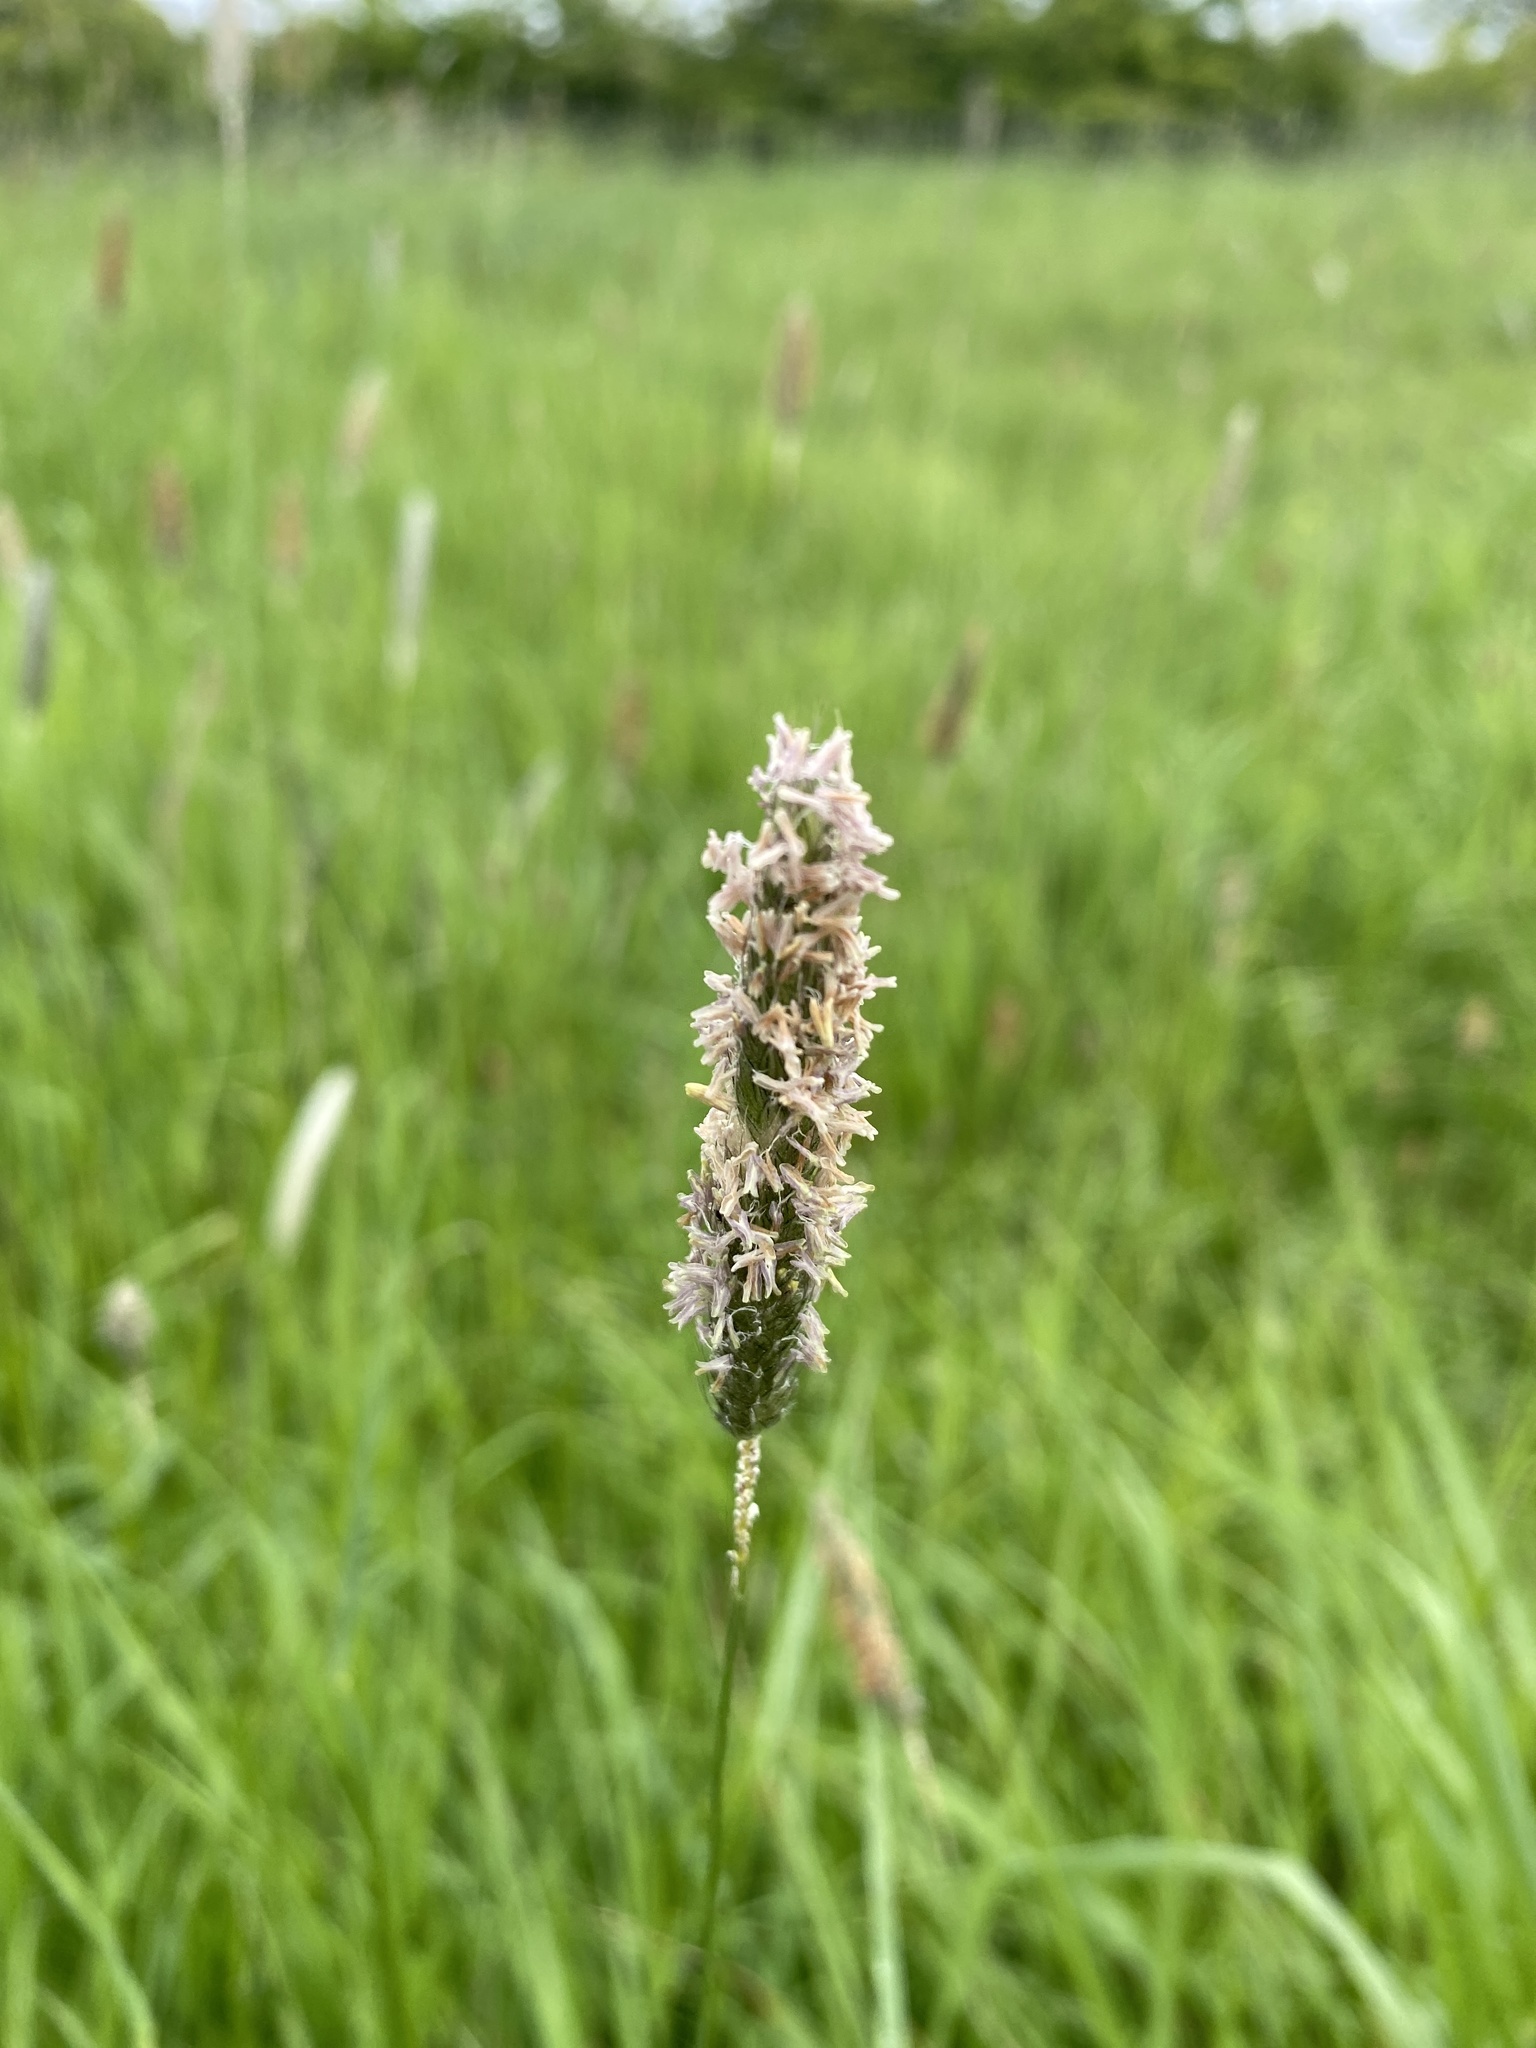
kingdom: Plantae
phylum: Tracheophyta
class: Liliopsida
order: Poales
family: Poaceae
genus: Alopecurus
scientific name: Alopecurus pratensis
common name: Meadow foxtail
